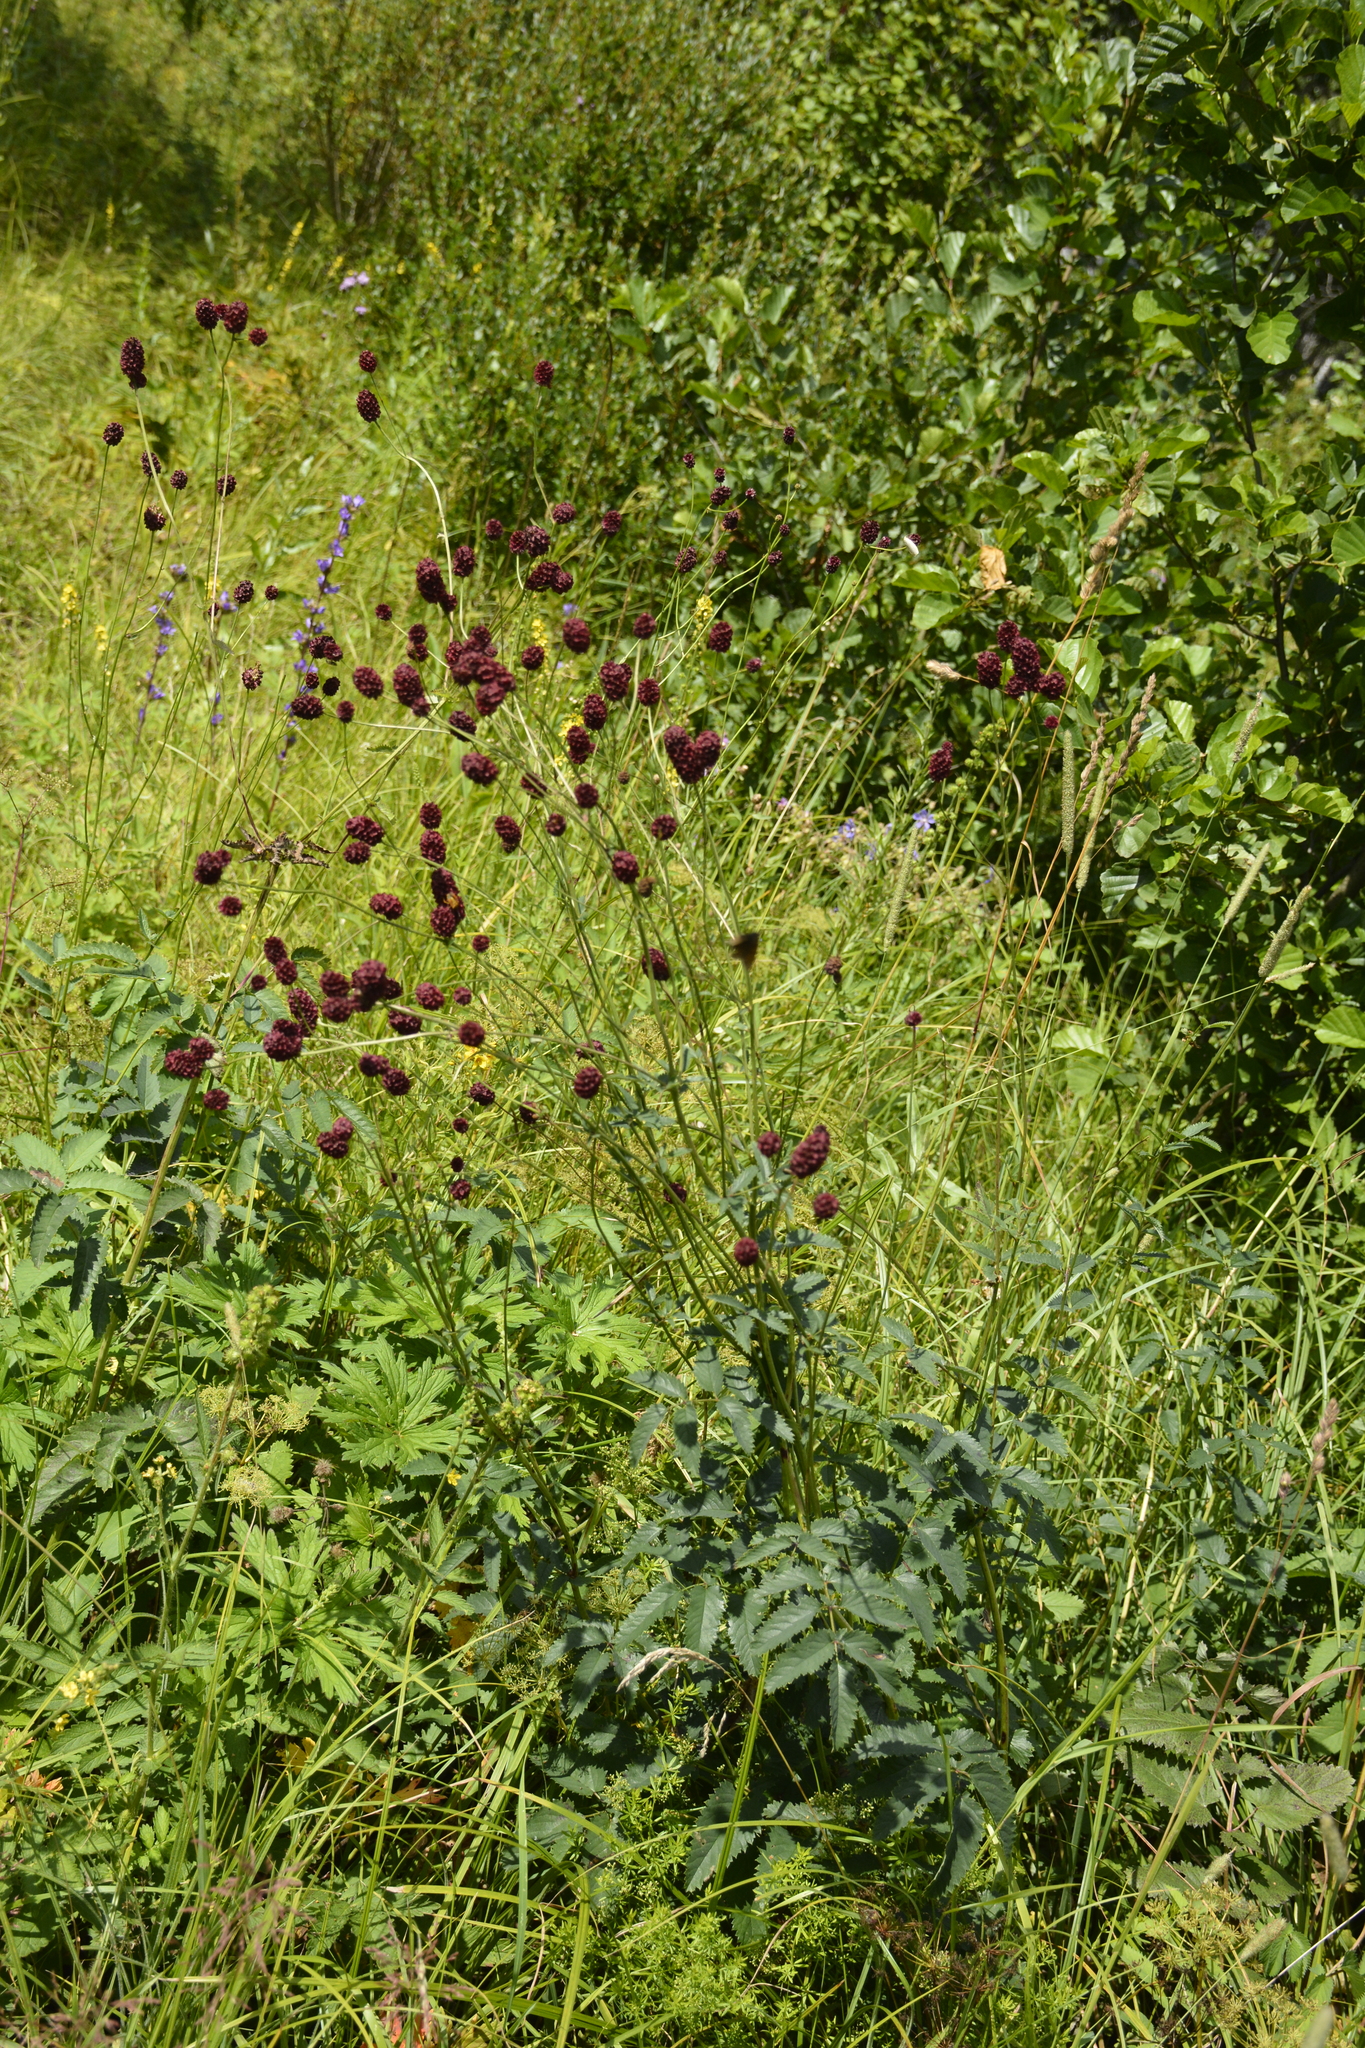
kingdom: Plantae
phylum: Tracheophyta
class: Magnoliopsida
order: Rosales
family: Rosaceae
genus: Sanguisorba
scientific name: Sanguisorba officinalis
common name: Great burnet
